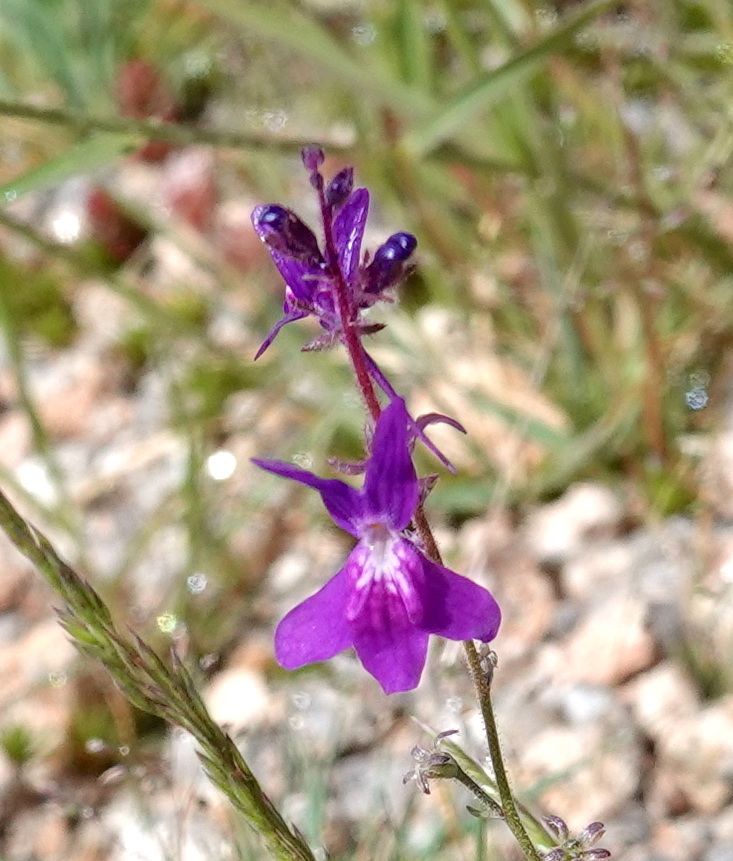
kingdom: Plantae
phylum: Tracheophyta
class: Magnoliopsida
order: Lamiales
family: Plantaginaceae
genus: Linaria
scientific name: Linaria elegans
